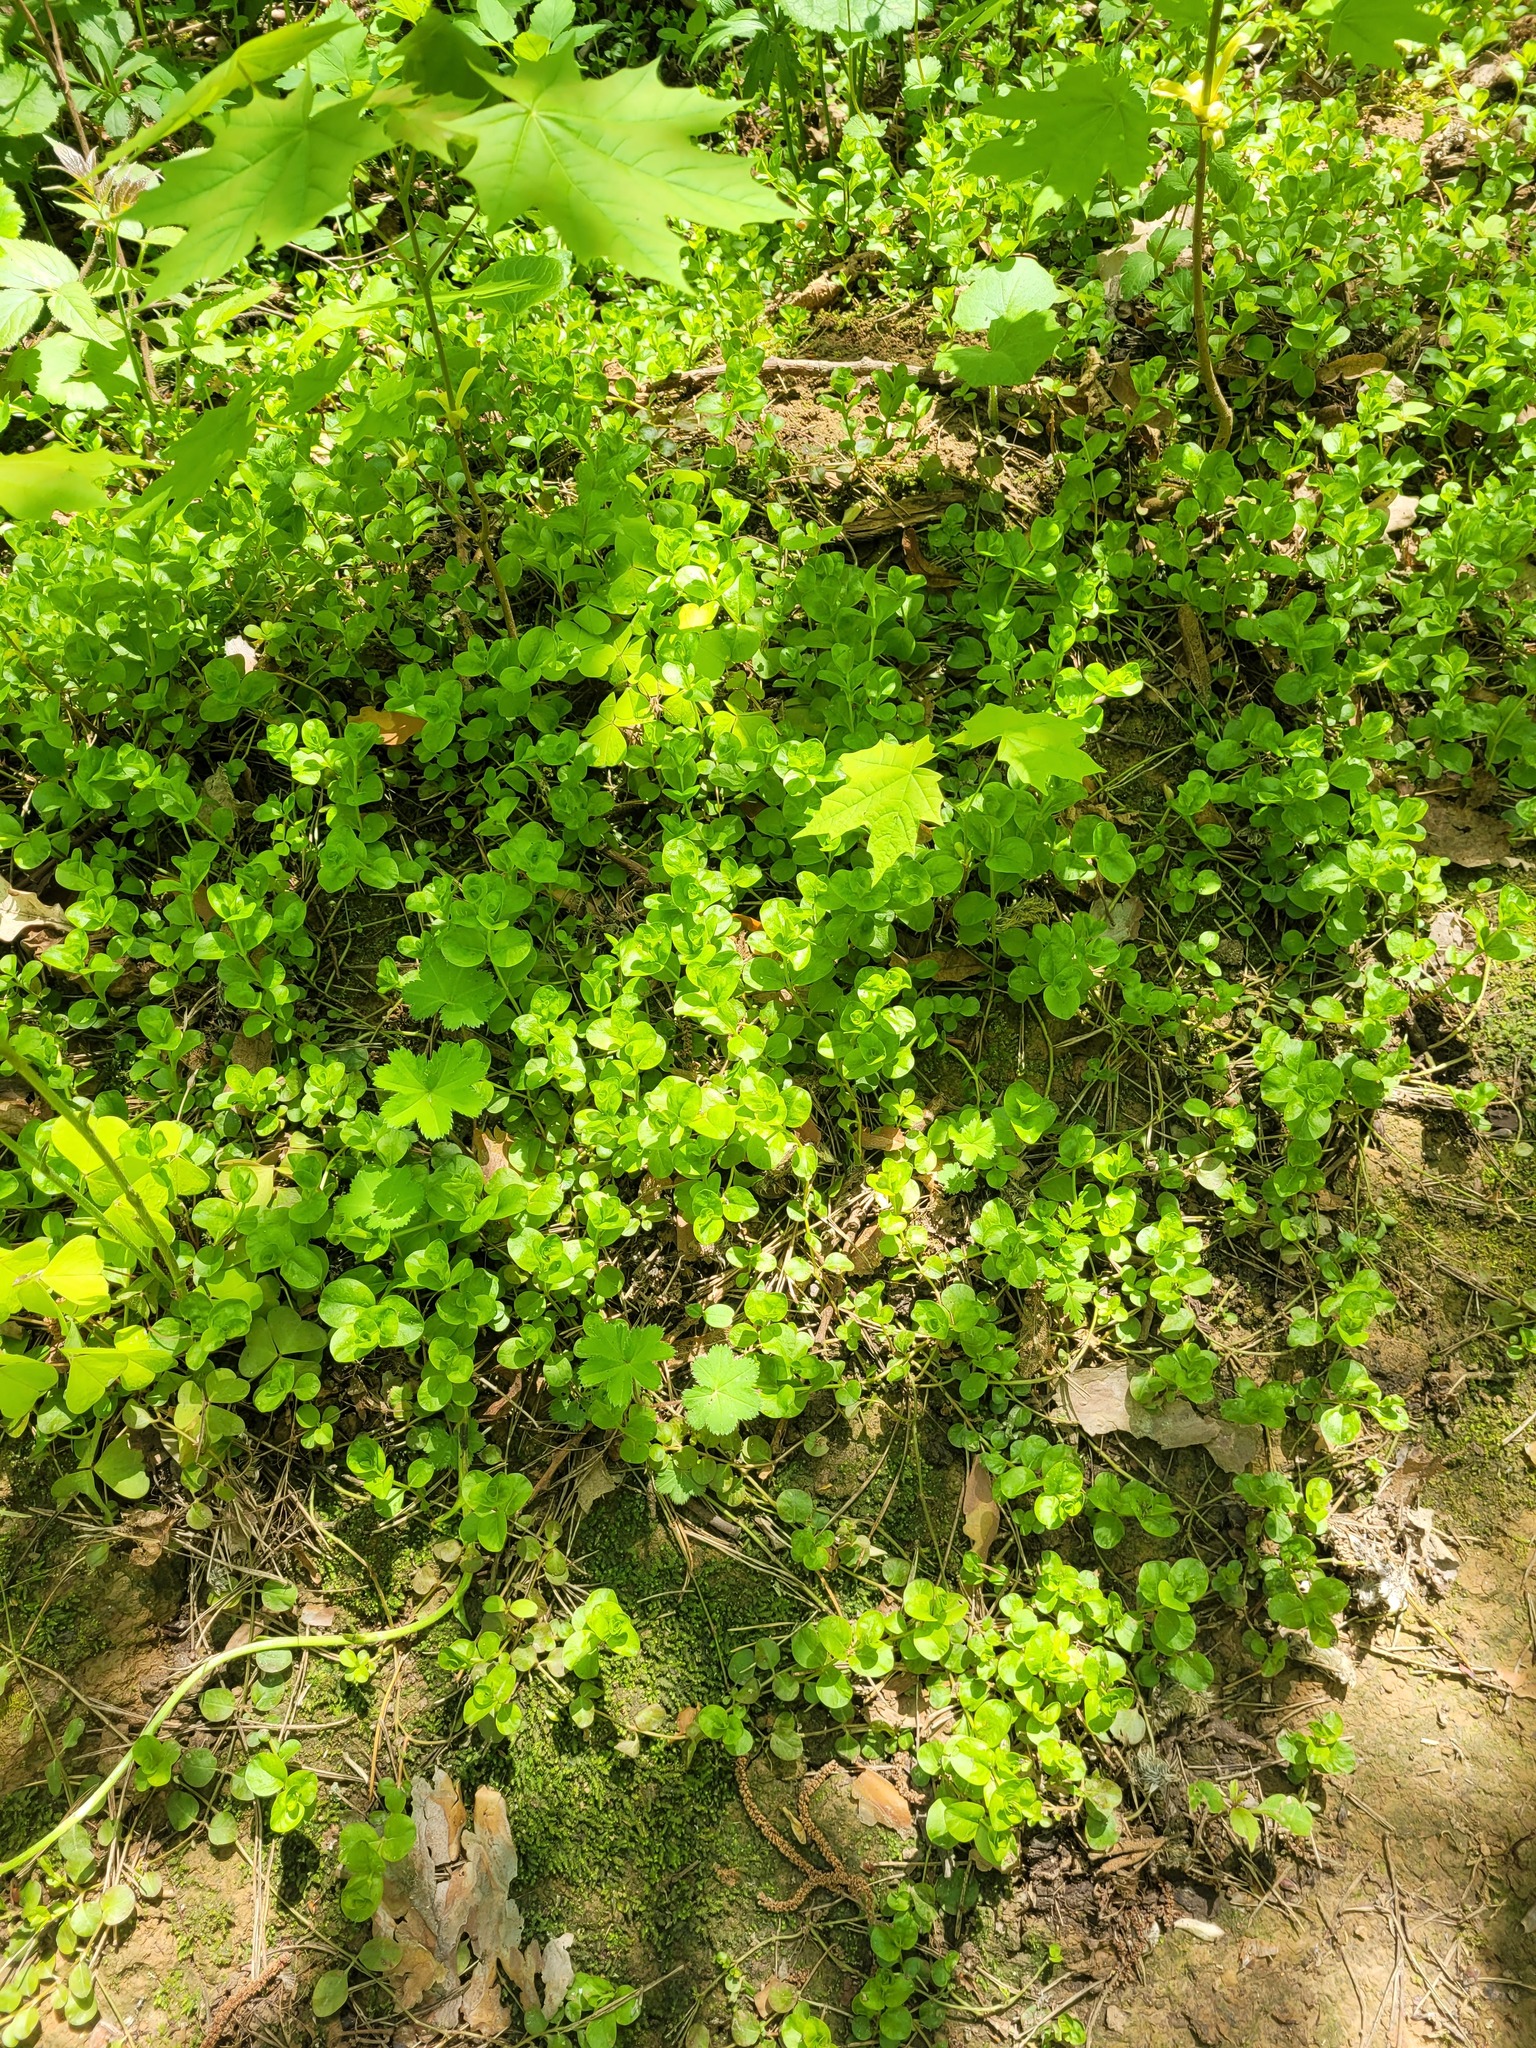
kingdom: Plantae
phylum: Tracheophyta
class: Magnoliopsida
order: Ericales
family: Primulaceae
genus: Lysimachia
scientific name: Lysimachia nummularia
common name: Moneywort
